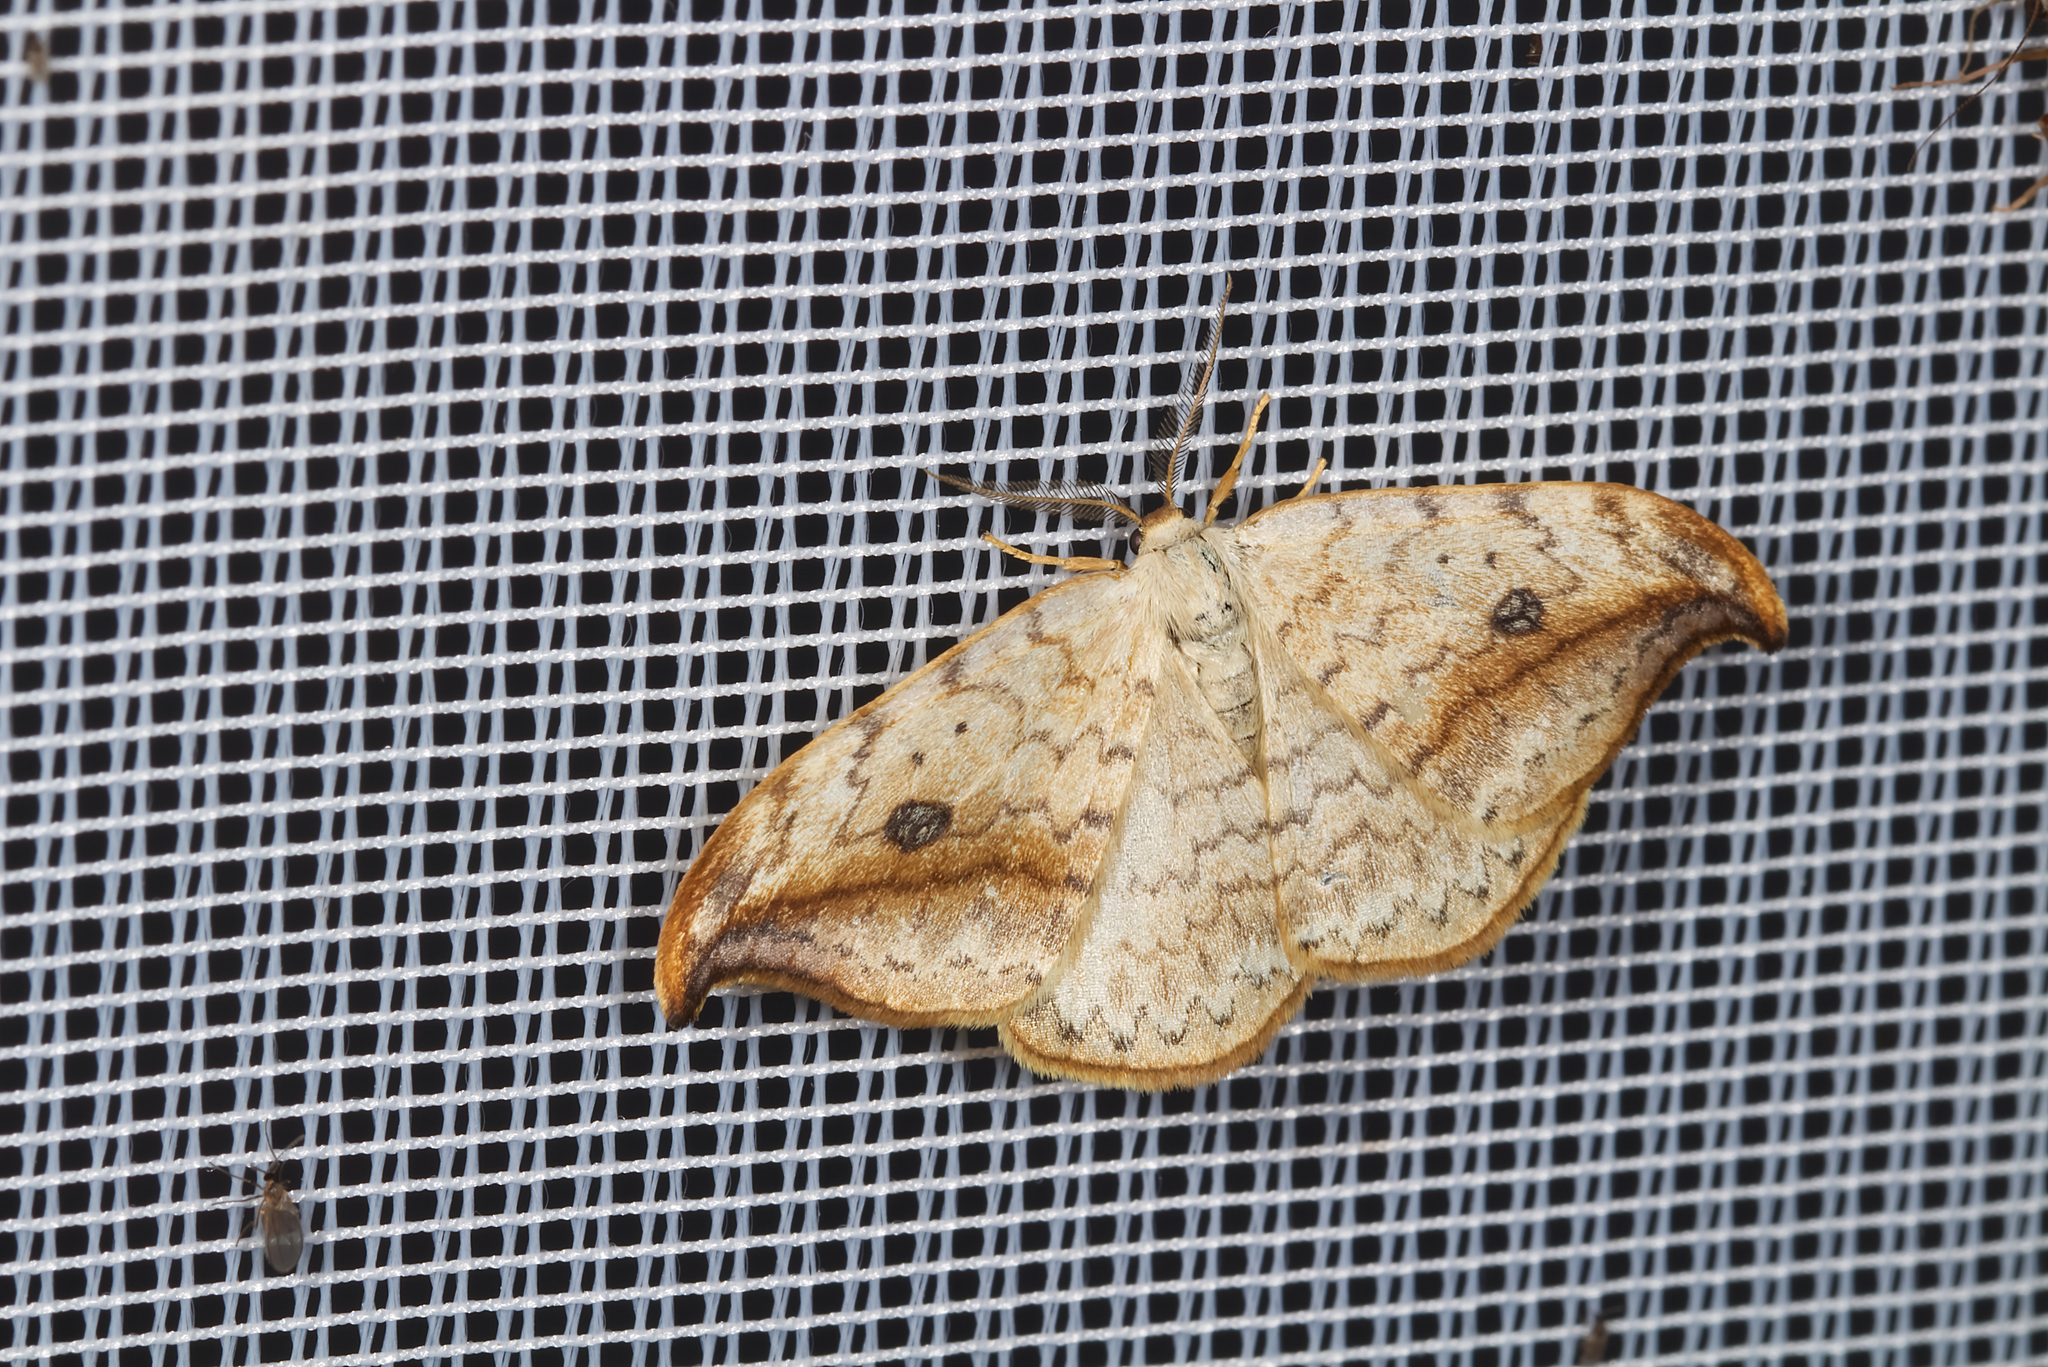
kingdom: Animalia
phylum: Arthropoda
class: Insecta
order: Lepidoptera
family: Drepanidae
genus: Drepana
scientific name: Drepana falcataria
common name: Pebble hook-tip
